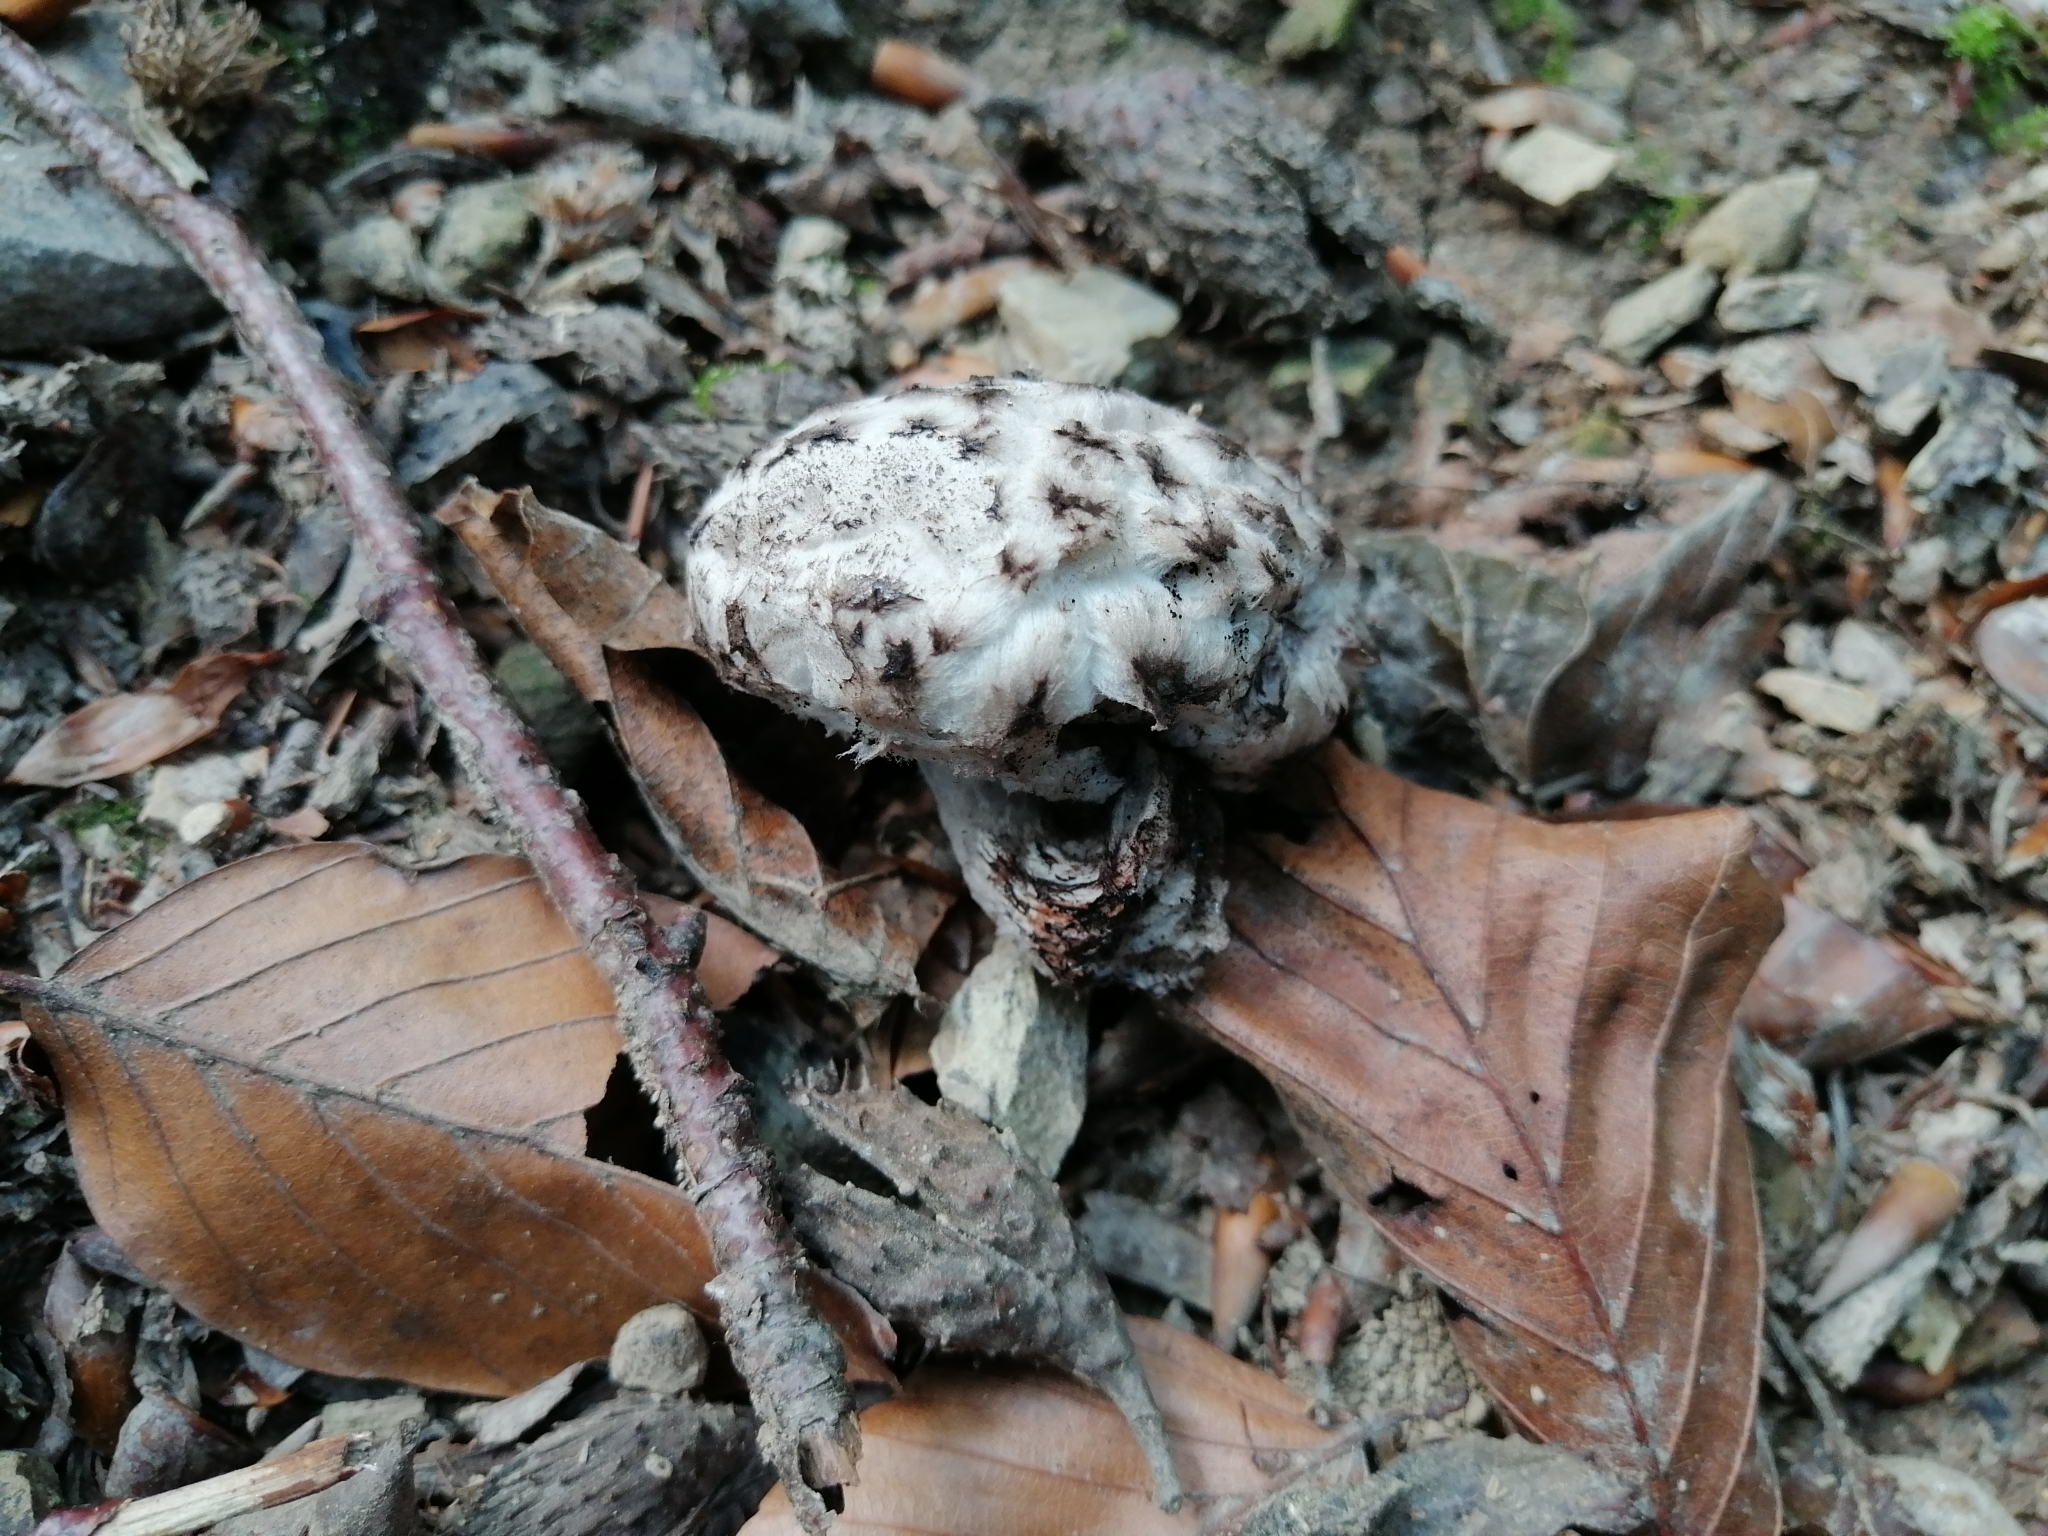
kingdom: Fungi
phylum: Basidiomycota
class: Agaricomycetes
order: Boletales
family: Boletaceae
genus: Strobilomyces
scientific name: Strobilomyces strobilaceus
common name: Old man of the woods
